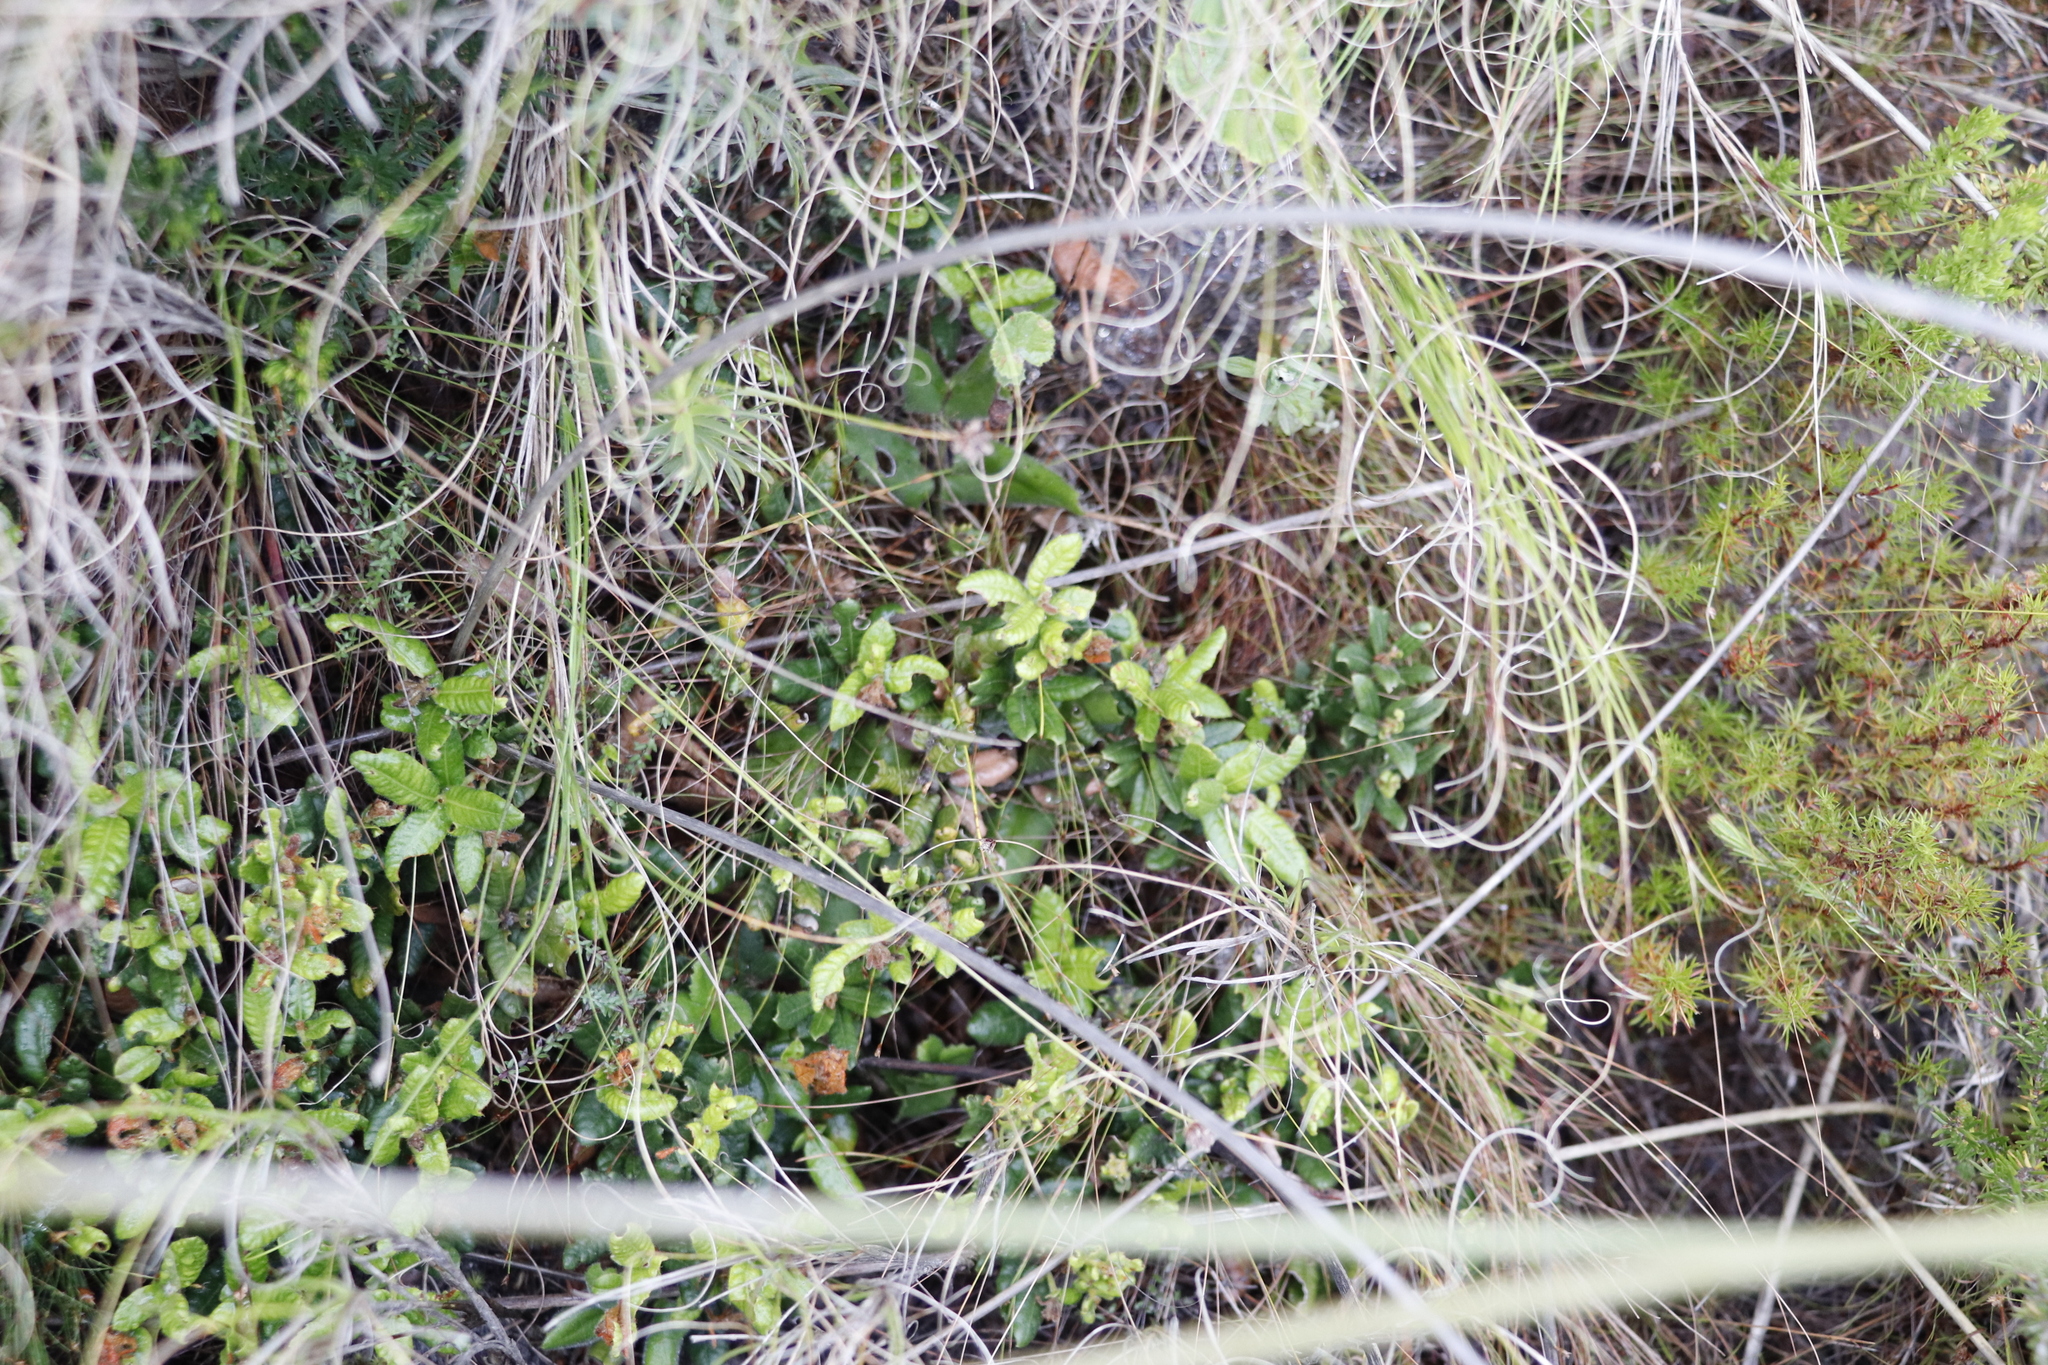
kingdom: Plantae
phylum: Tracheophyta
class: Magnoliopsida
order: Fagales
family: Myricaceae
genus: Morella
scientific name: Morella kraussiana
